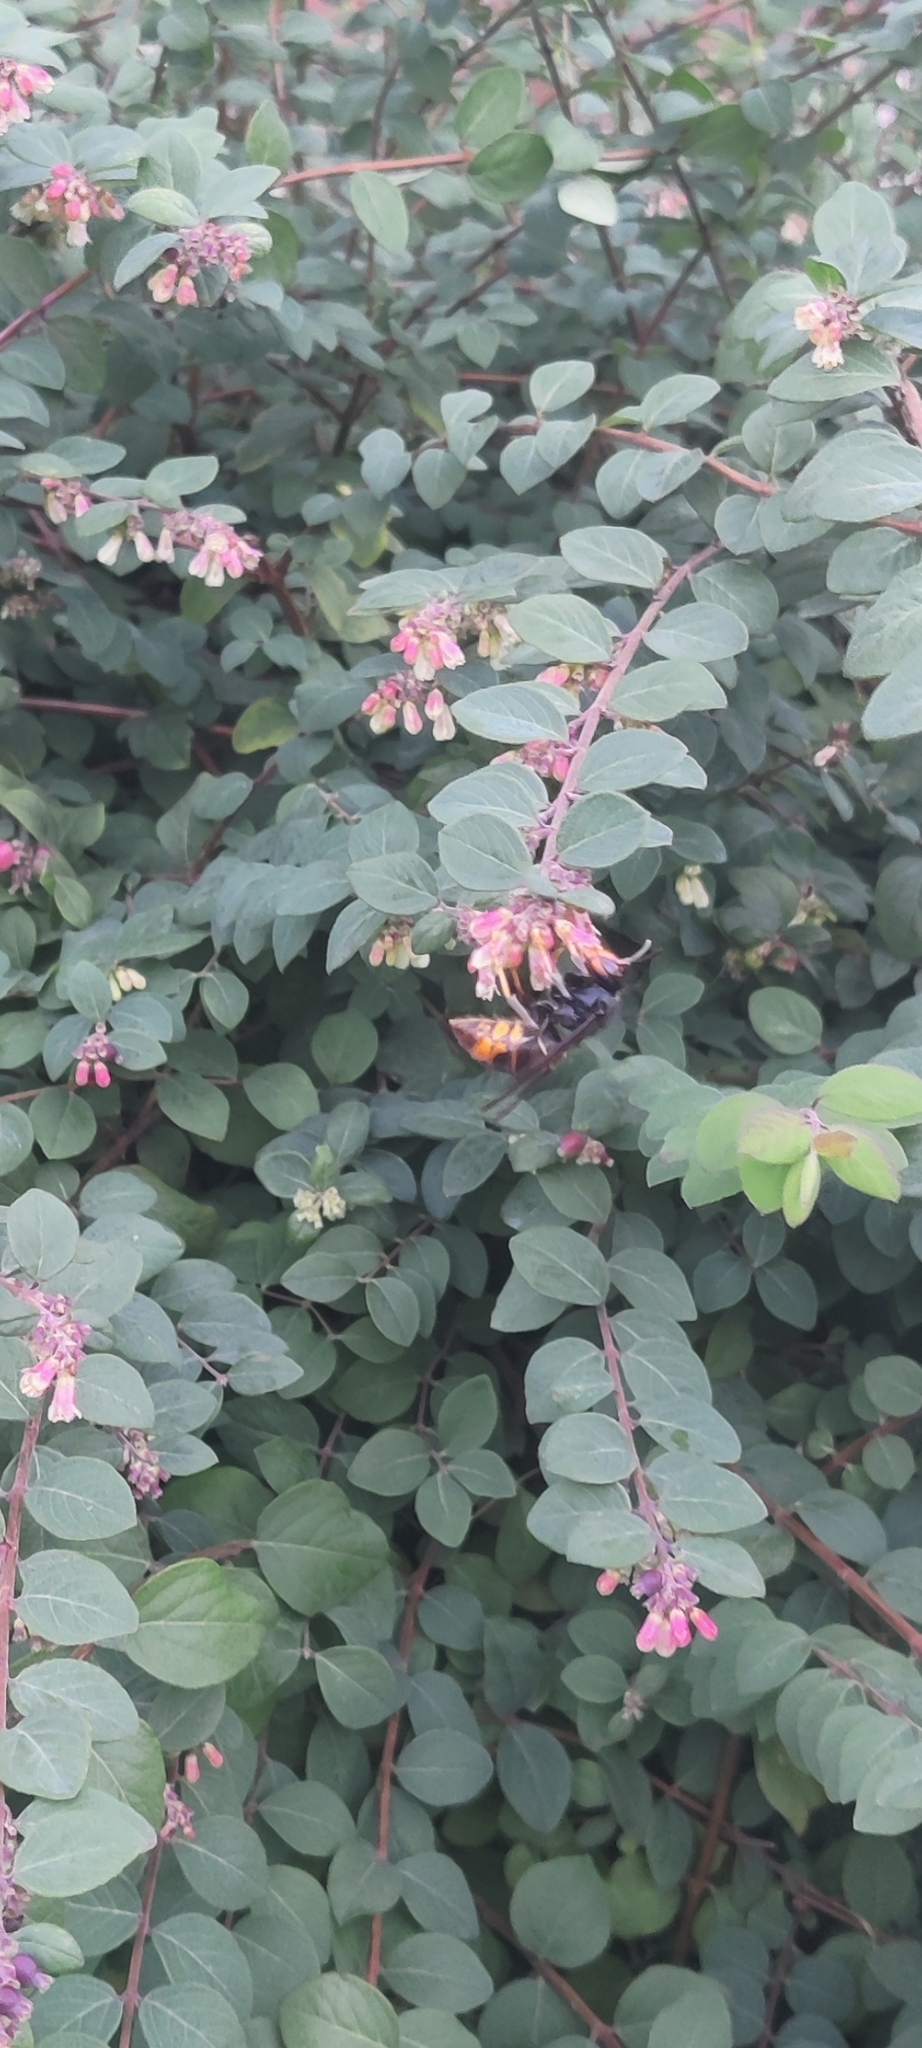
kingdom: Animalia
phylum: Arthropoda
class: Insecta
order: Hymenoptera
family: Vespidae
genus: Vespa
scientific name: Vespa velutina
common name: Asian hornet
